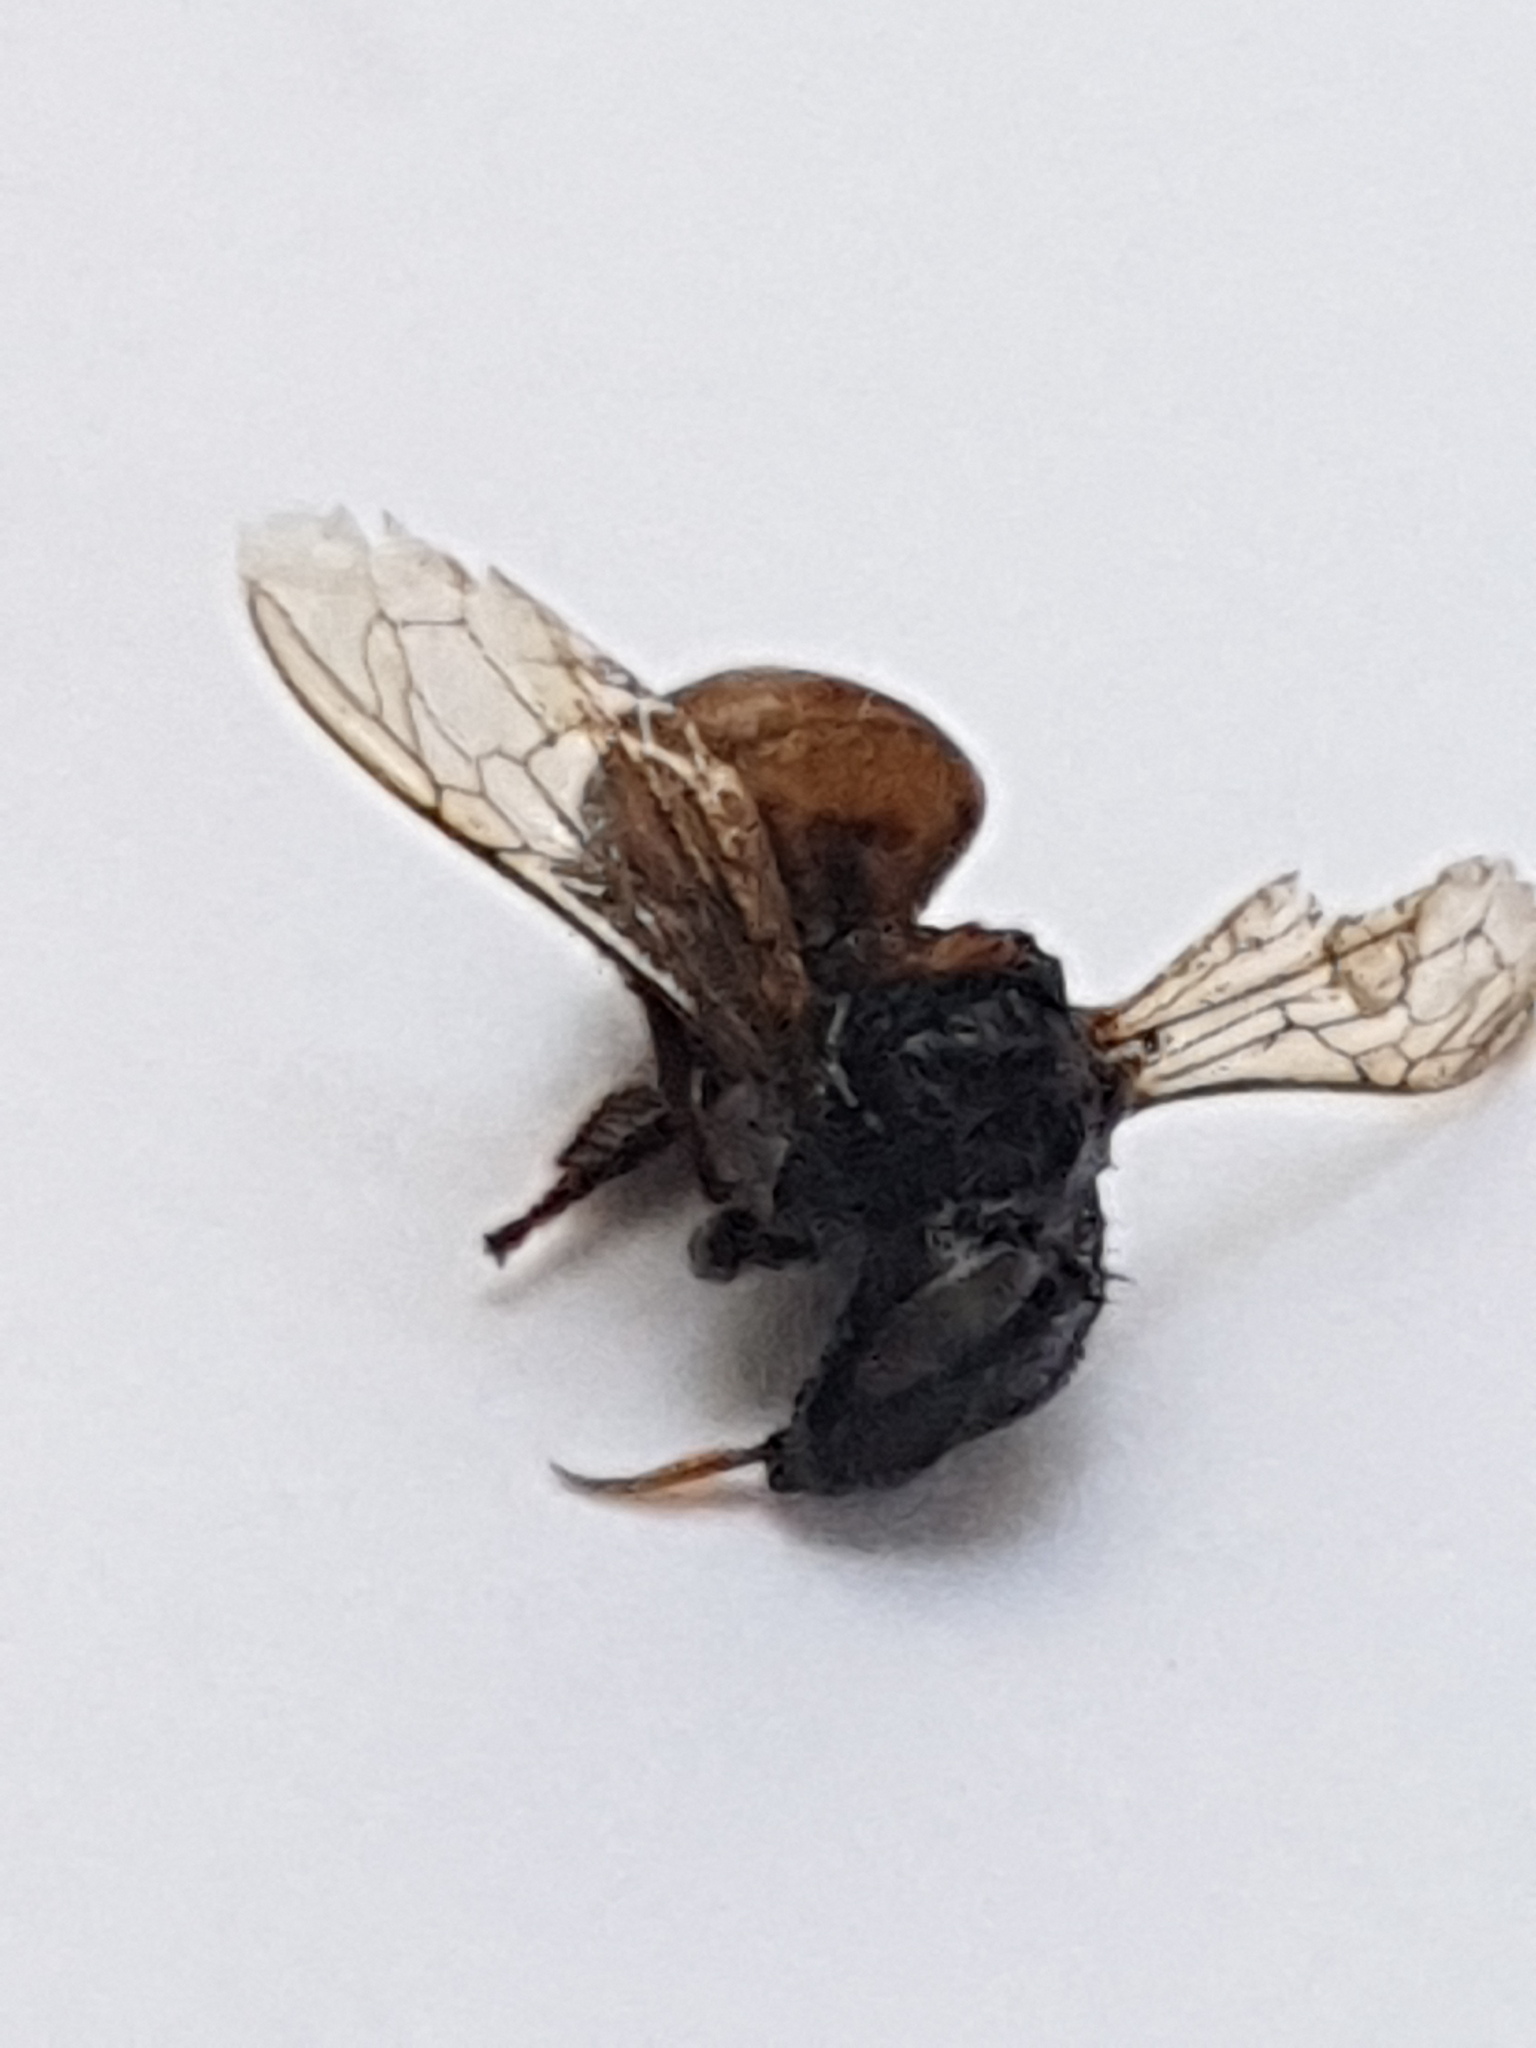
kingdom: Animalia
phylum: Arthropoda
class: Insecta
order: Hymenoptera
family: Apidae
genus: Apis
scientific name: Apis mellifera
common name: Honey bee
